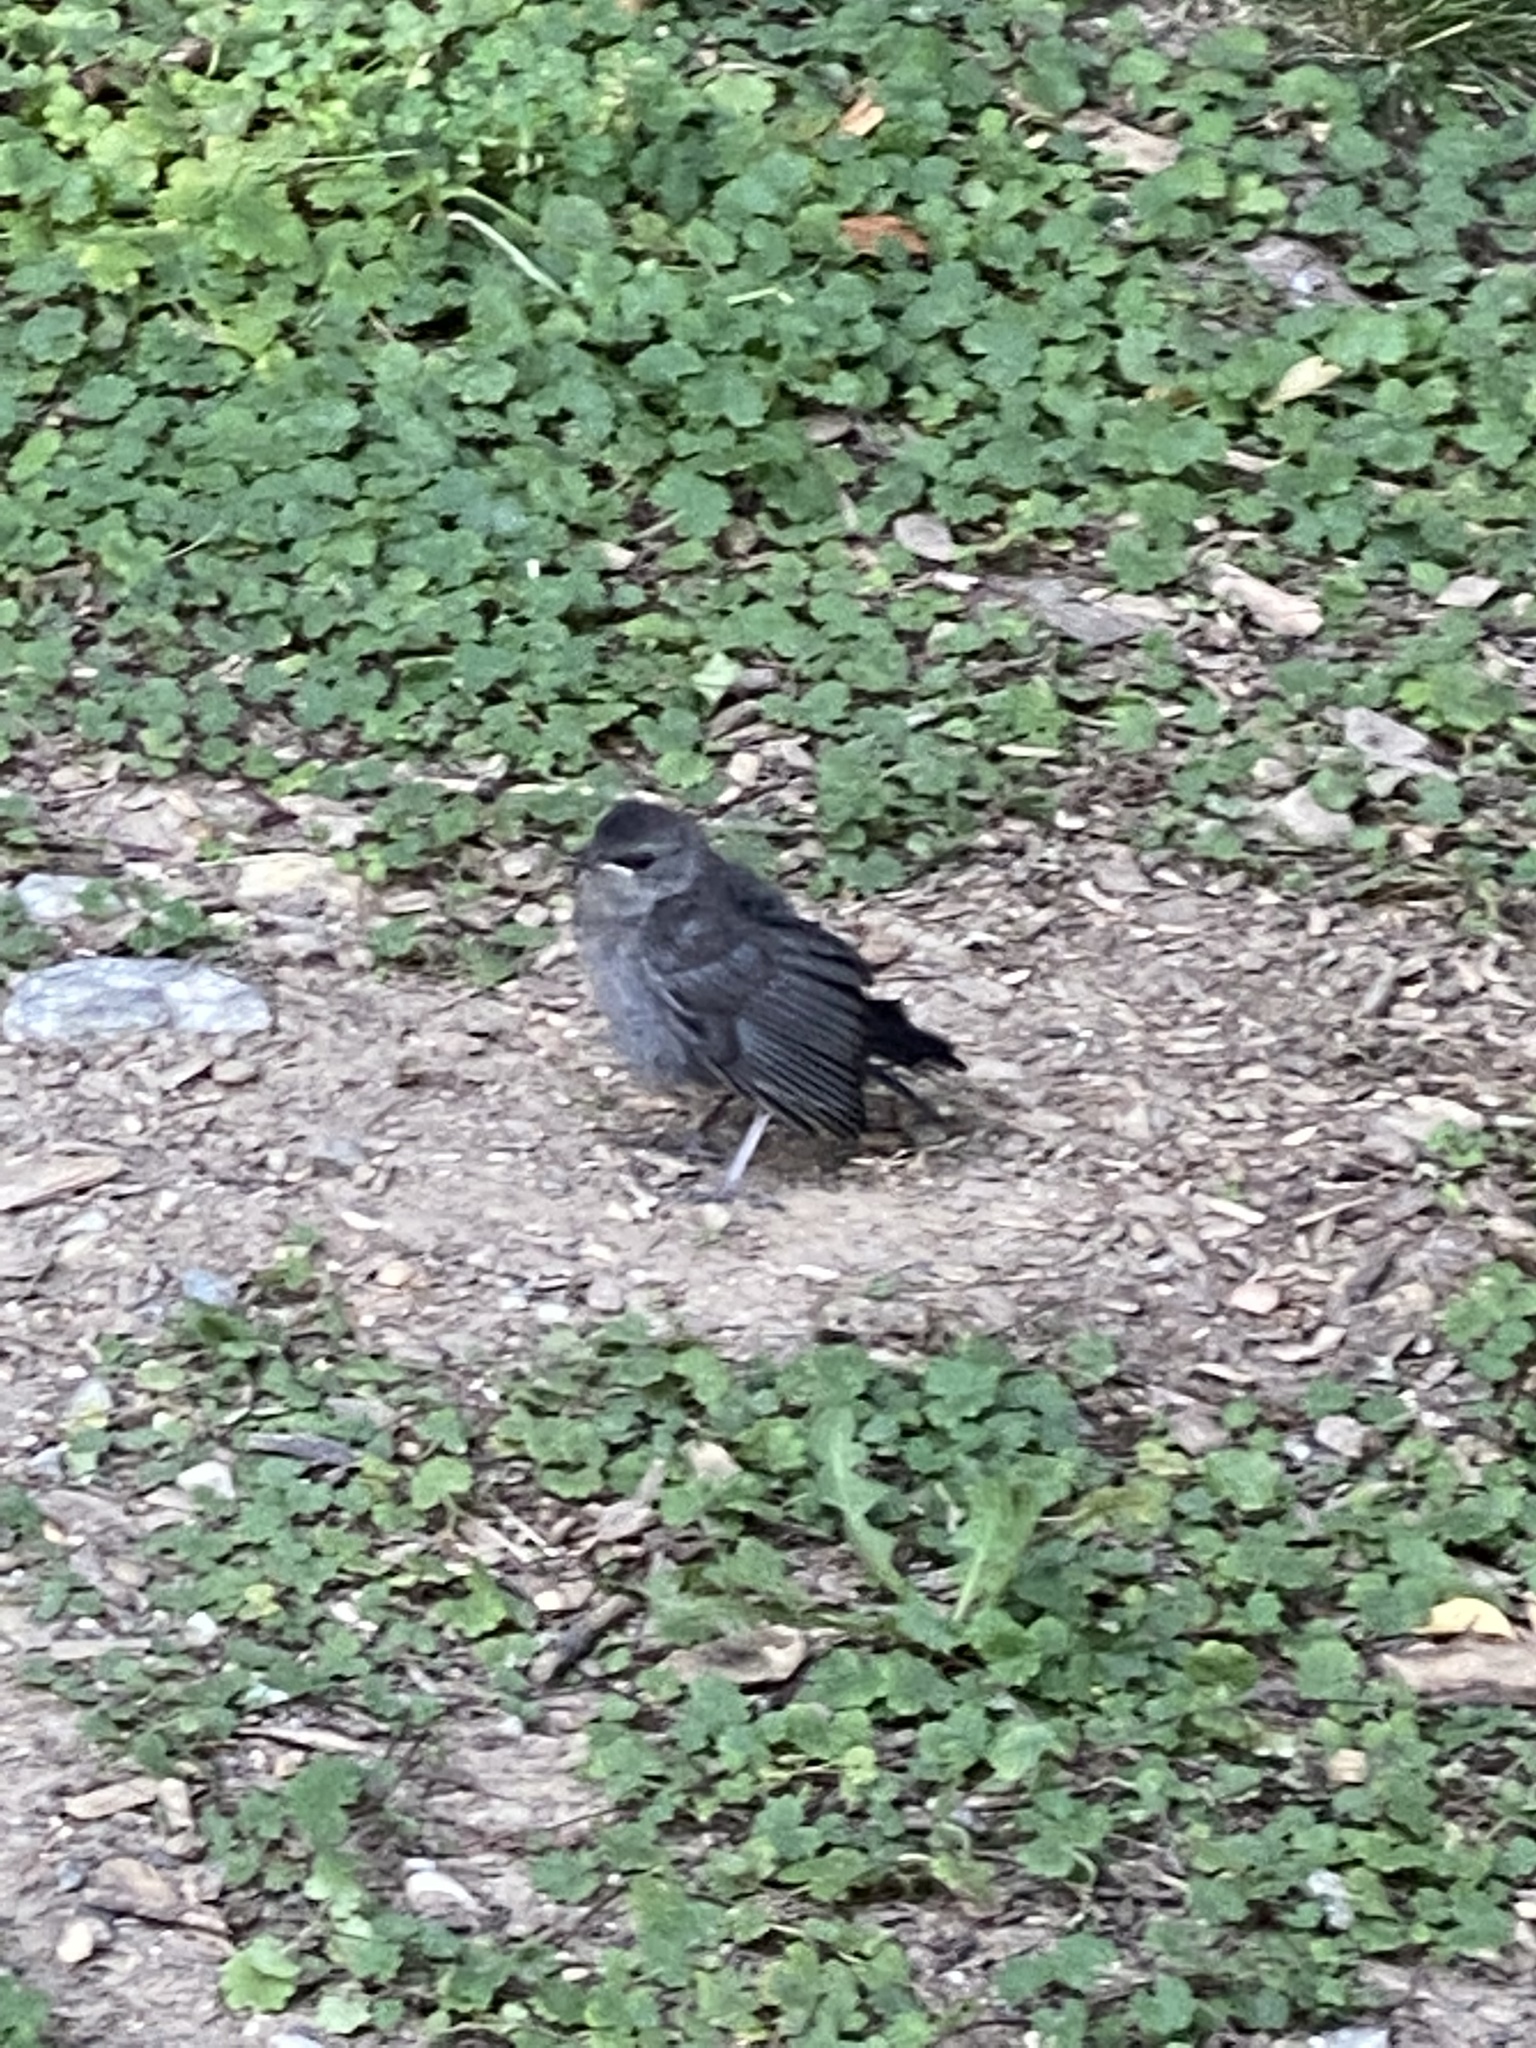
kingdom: Animalia
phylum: Chordata
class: Aves
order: Passeriformes
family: Mimidae
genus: Dumetella
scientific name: Dumetella carolinensis
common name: Gray catbird
